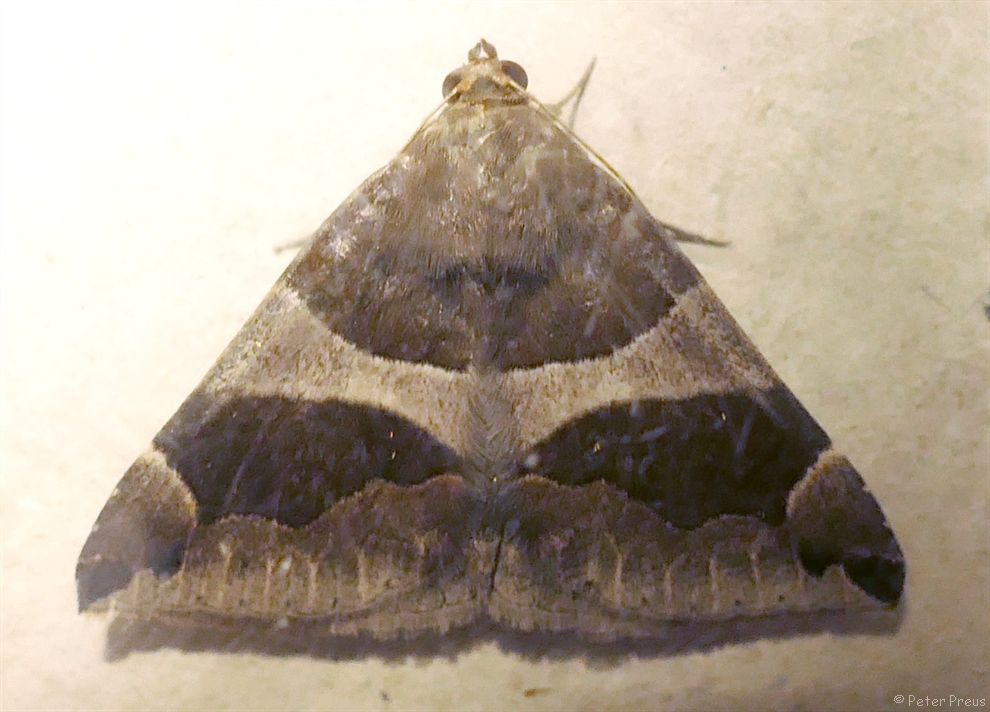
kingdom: Animalia
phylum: Arthropoda
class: Insecta
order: Lepidoptera
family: Erebidae
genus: Dysgonia
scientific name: Dysgonia algira
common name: Passenger
